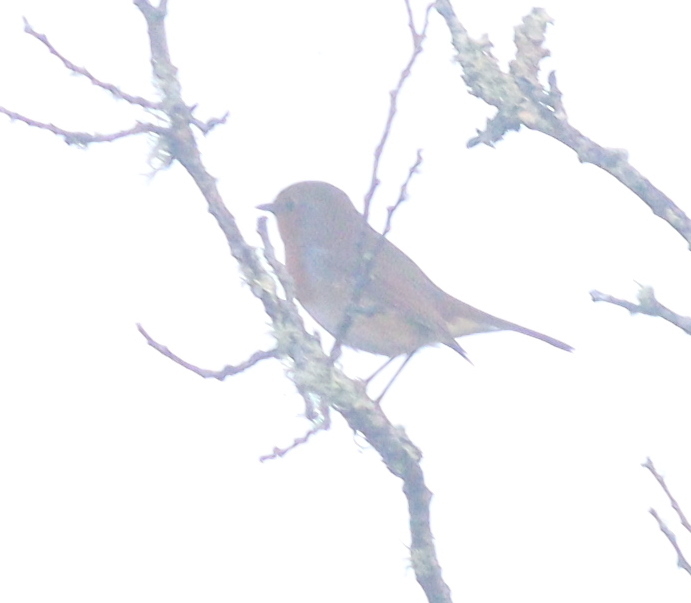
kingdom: Animalia
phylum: Chordata
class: Aves
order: Passeriformes
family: Muscicapidae
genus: Erithacus
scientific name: Erithacus rubecula
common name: European robin
